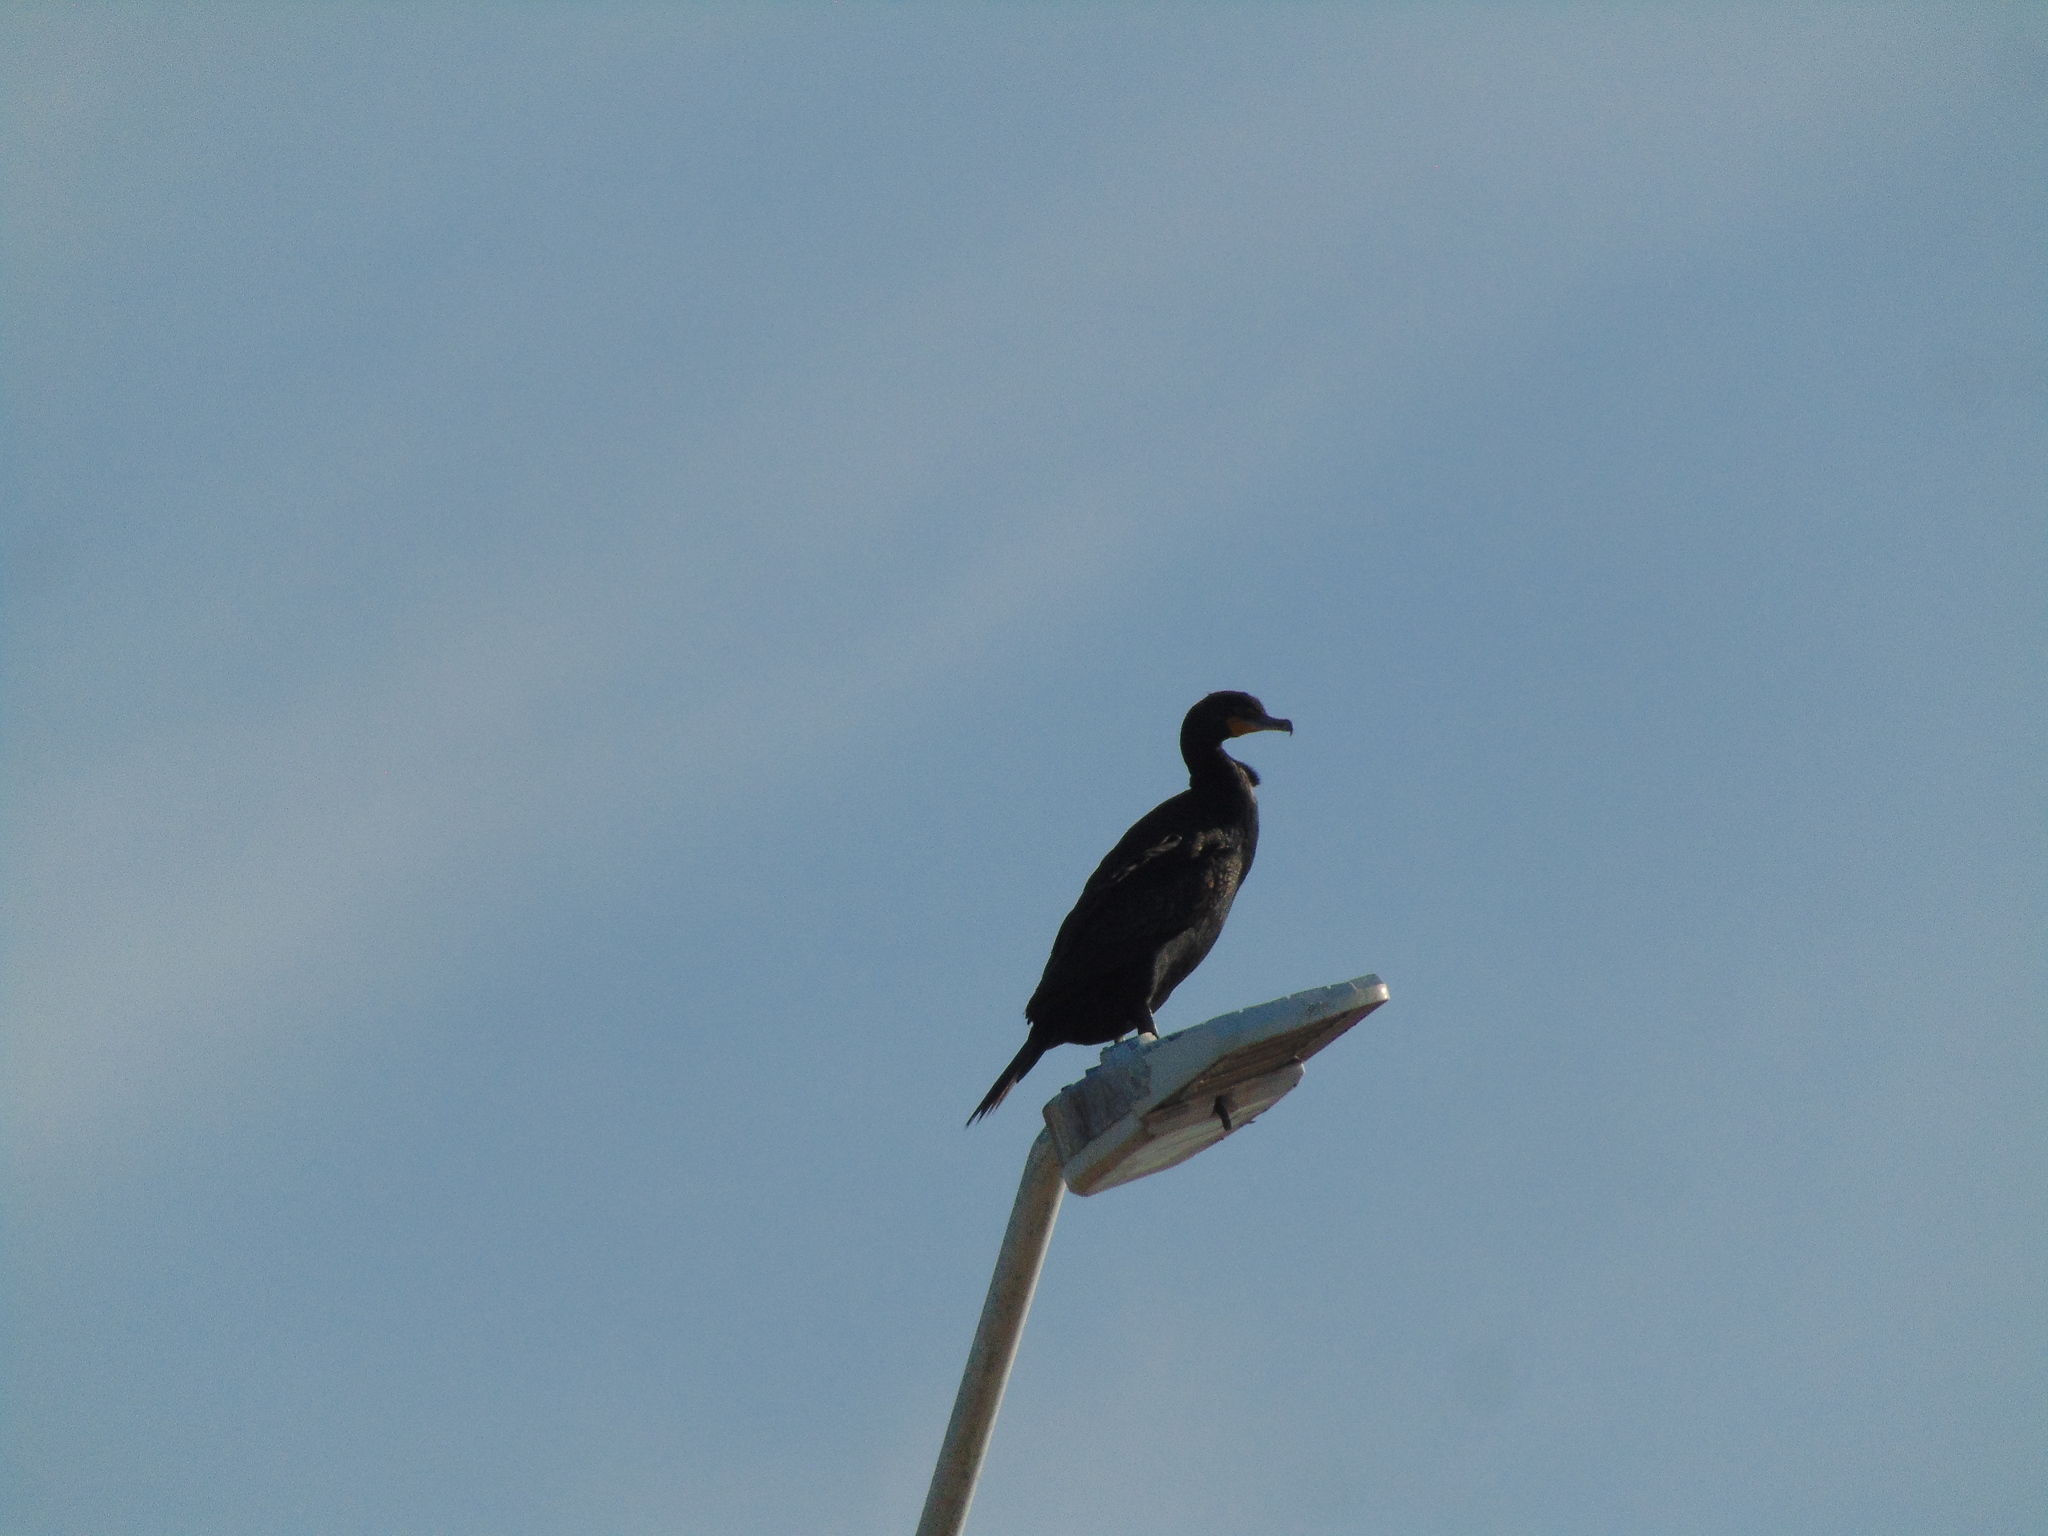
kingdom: Animalia
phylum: Chordata
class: Aves
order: Suliformes
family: Phalacrocoracidae
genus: Phalacrocorax
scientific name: Phalacrocorax auritus
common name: Double-crested cormorant
